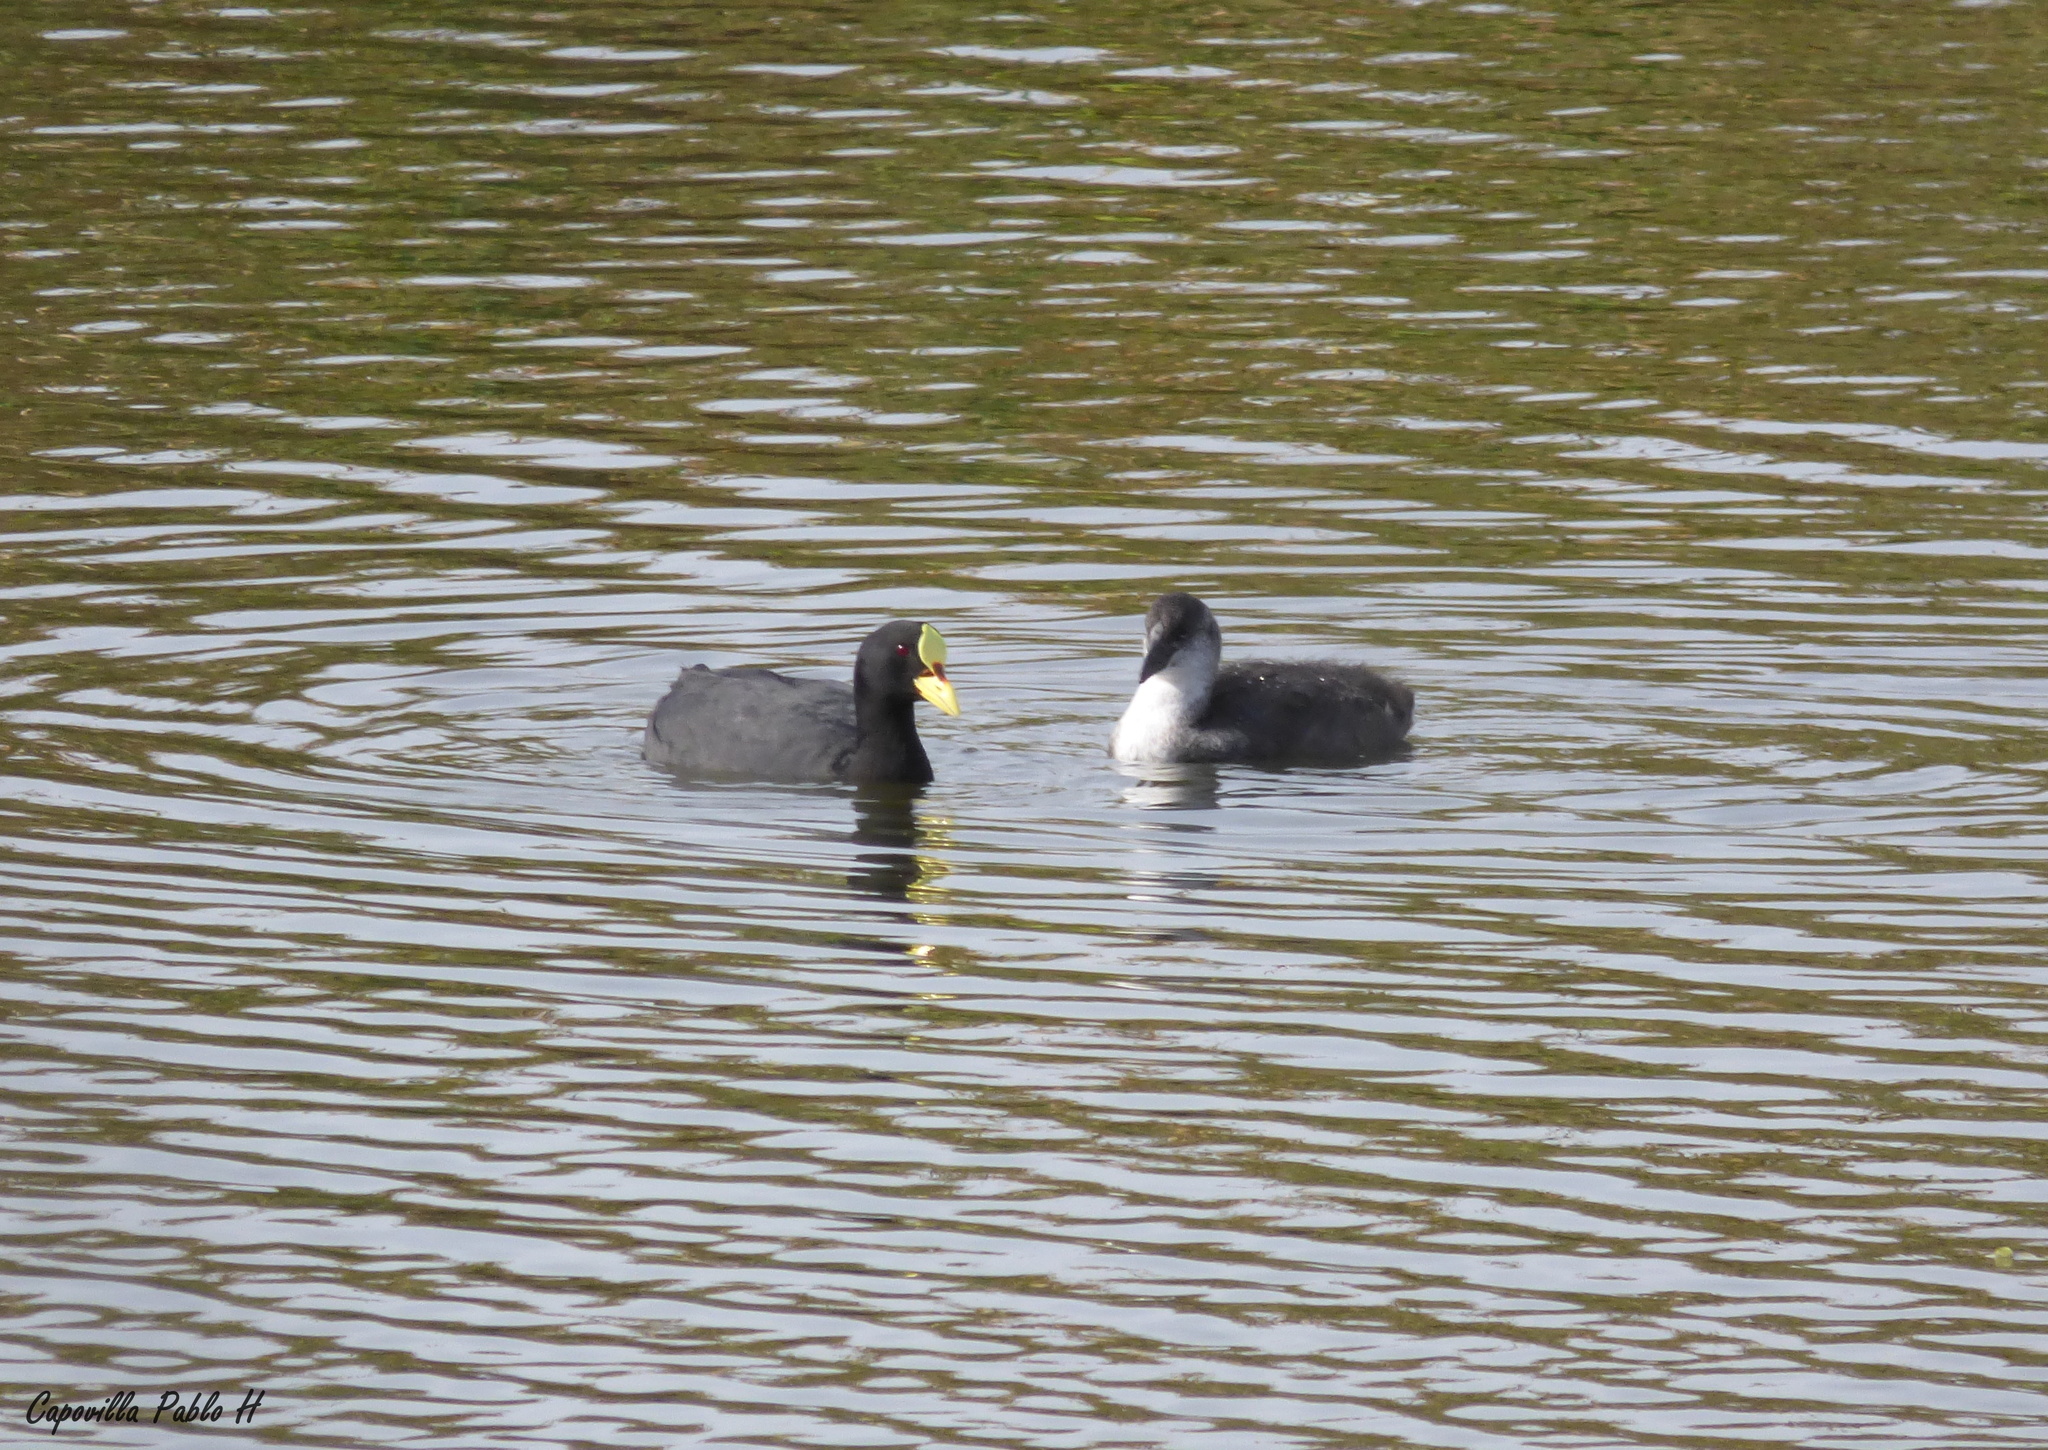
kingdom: Animalia
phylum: Chordata
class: Aves
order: Gruiformes
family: Rallidae
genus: Fulica
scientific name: Fulica armillata
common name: Red-gartered coot
